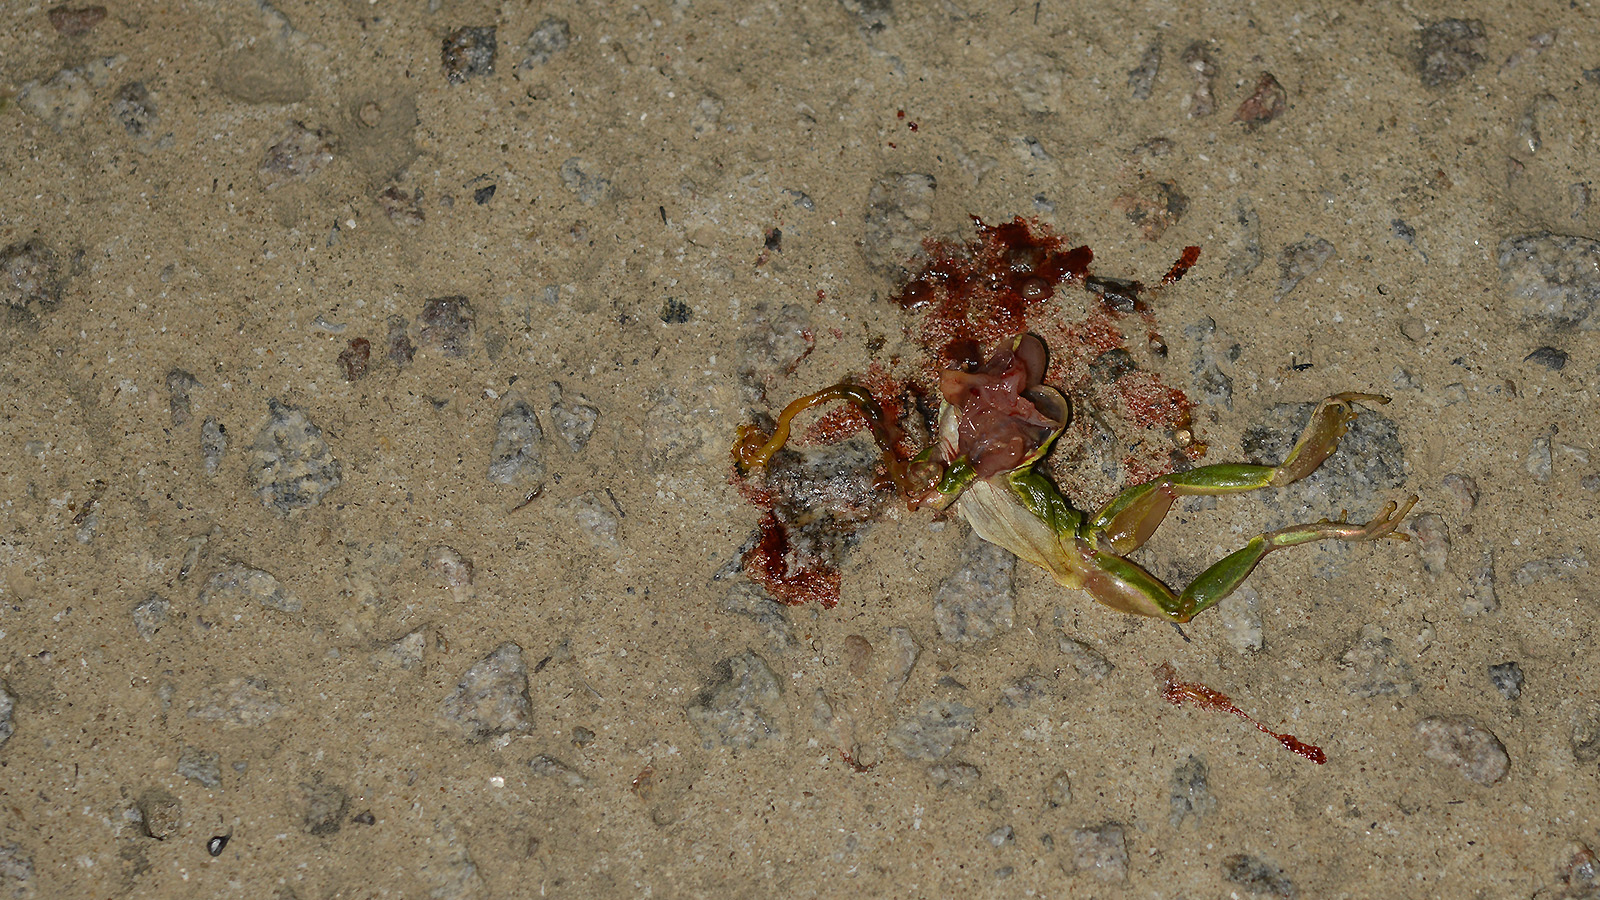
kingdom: Animalia
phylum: Chordata
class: Amphibia
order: Anura
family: Hylidae
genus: Dryophytes
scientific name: Dryophytes japonicus
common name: Japanese treefrog
